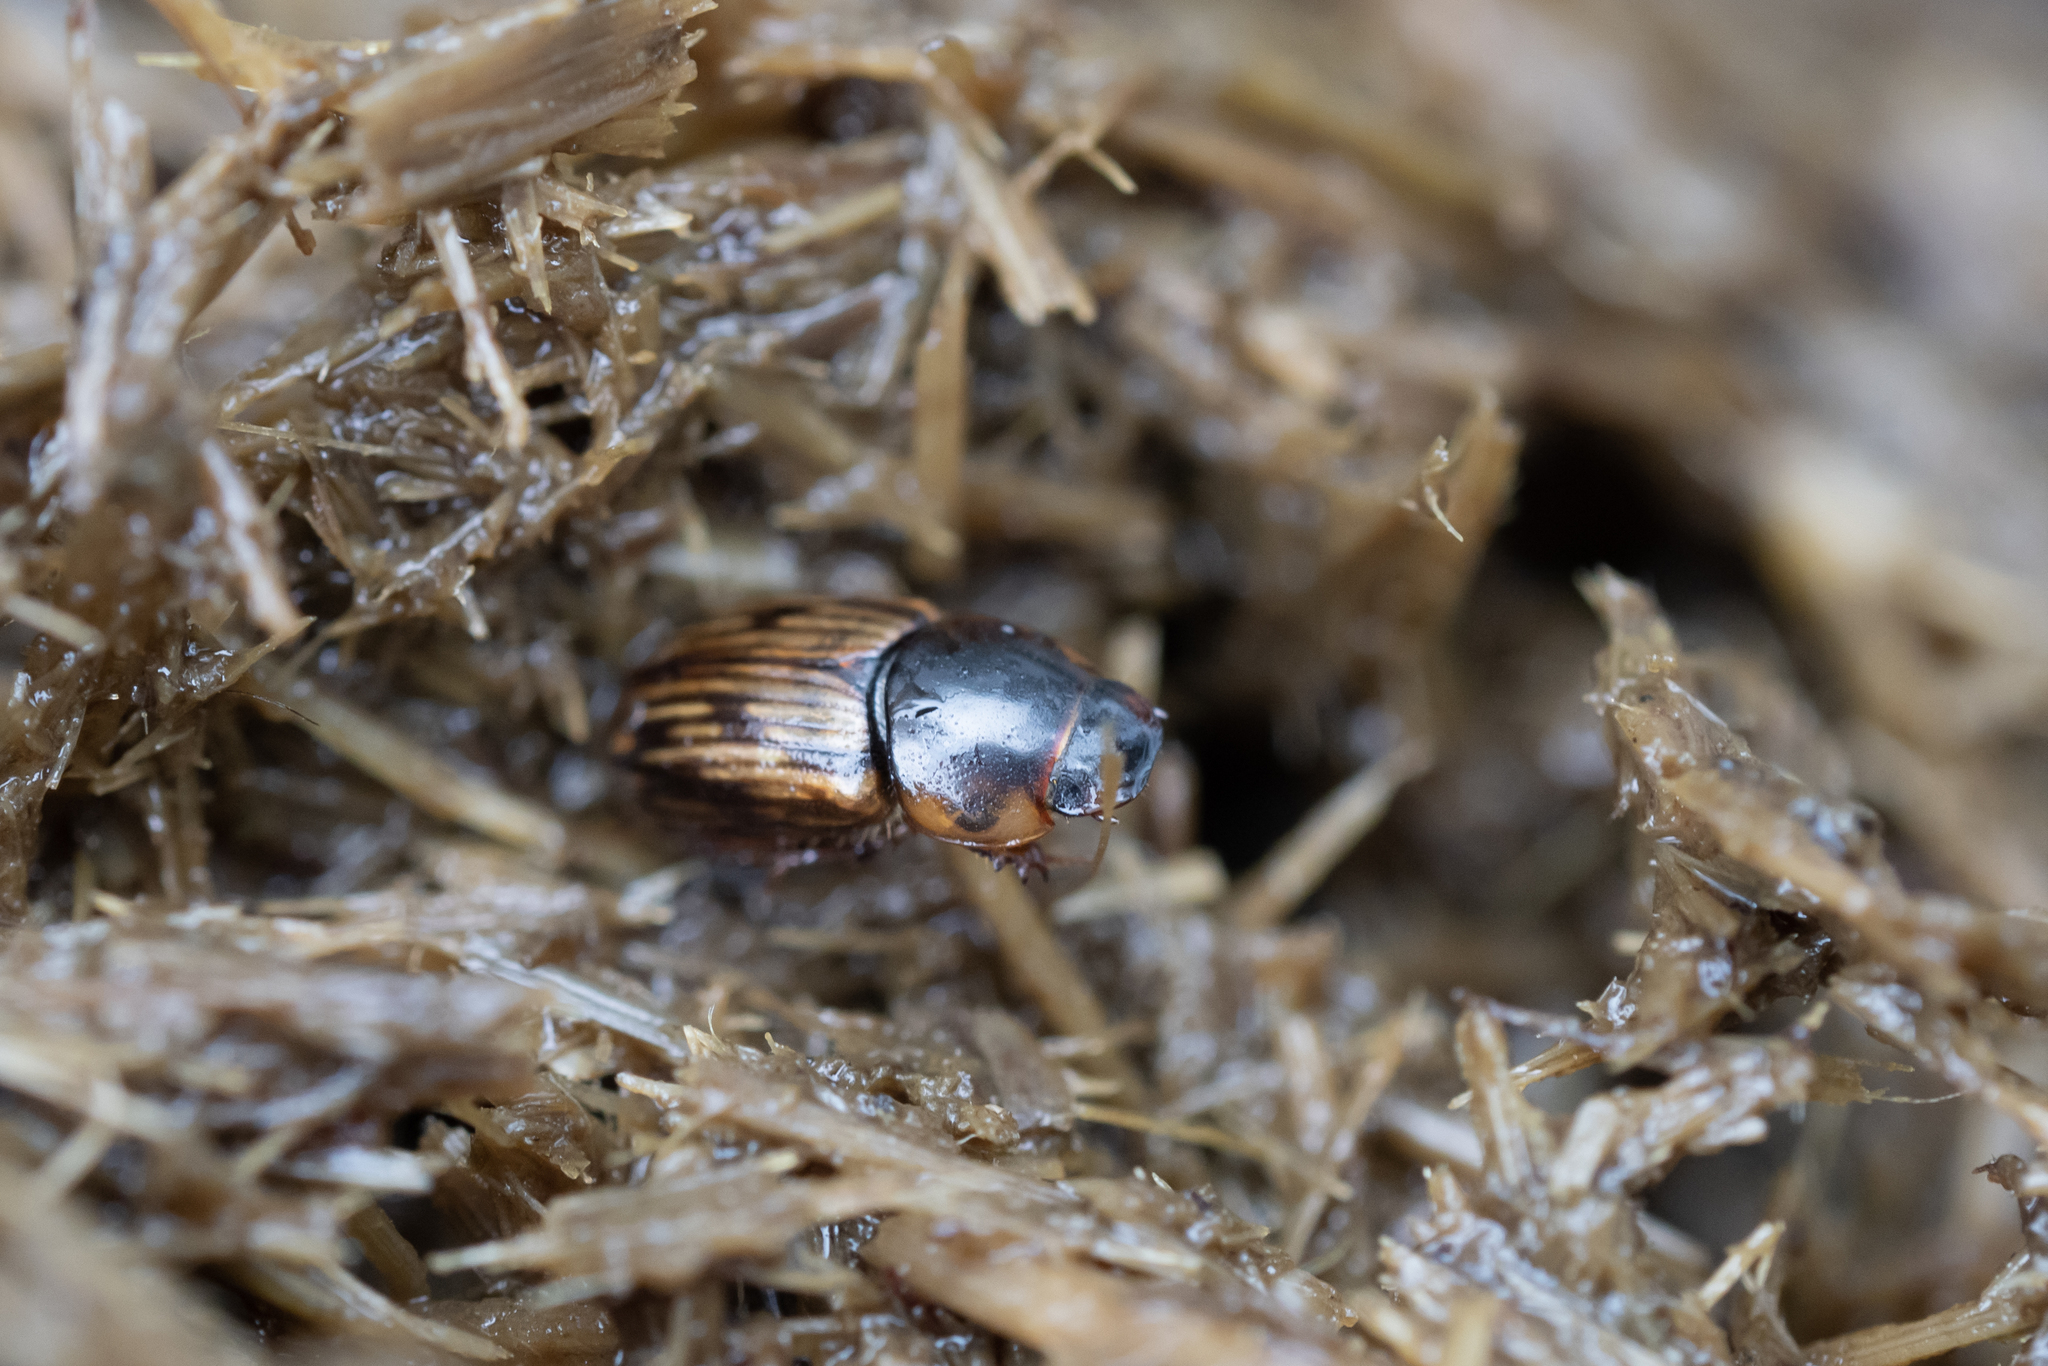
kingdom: Animalia
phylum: Arthropoda
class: Insecta
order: Coleoptera
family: Scarabaeidae
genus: Volinus
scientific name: Volinus sticticus
